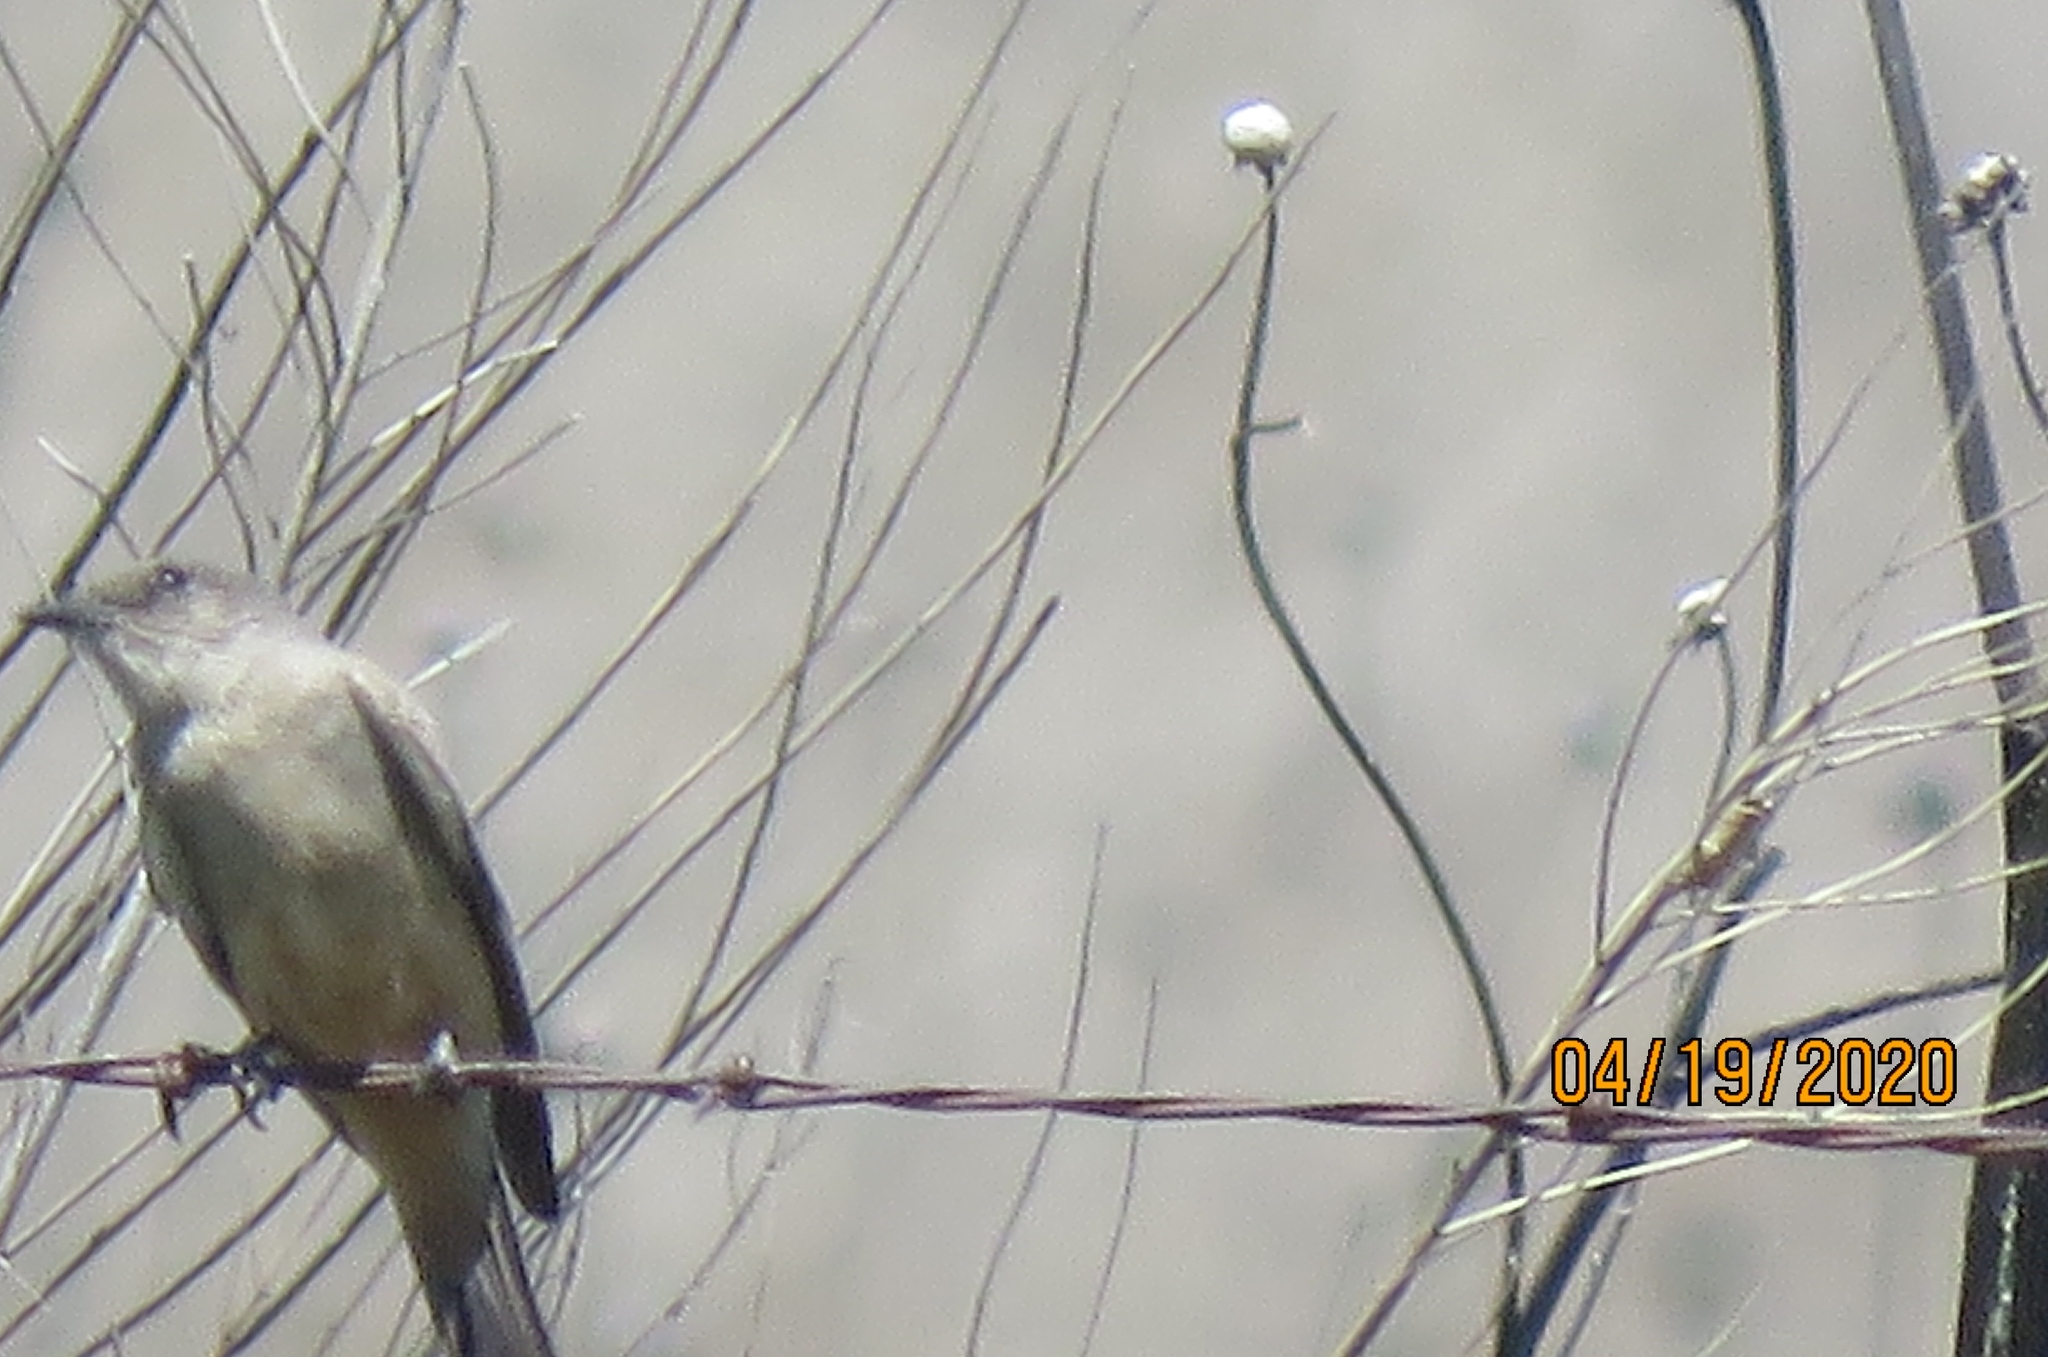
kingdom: Animalia
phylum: Chordata
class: Aves
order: Passeriformes
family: Tyrannidae
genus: Sayornis
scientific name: Sayornis saya
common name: Say's phoebe
